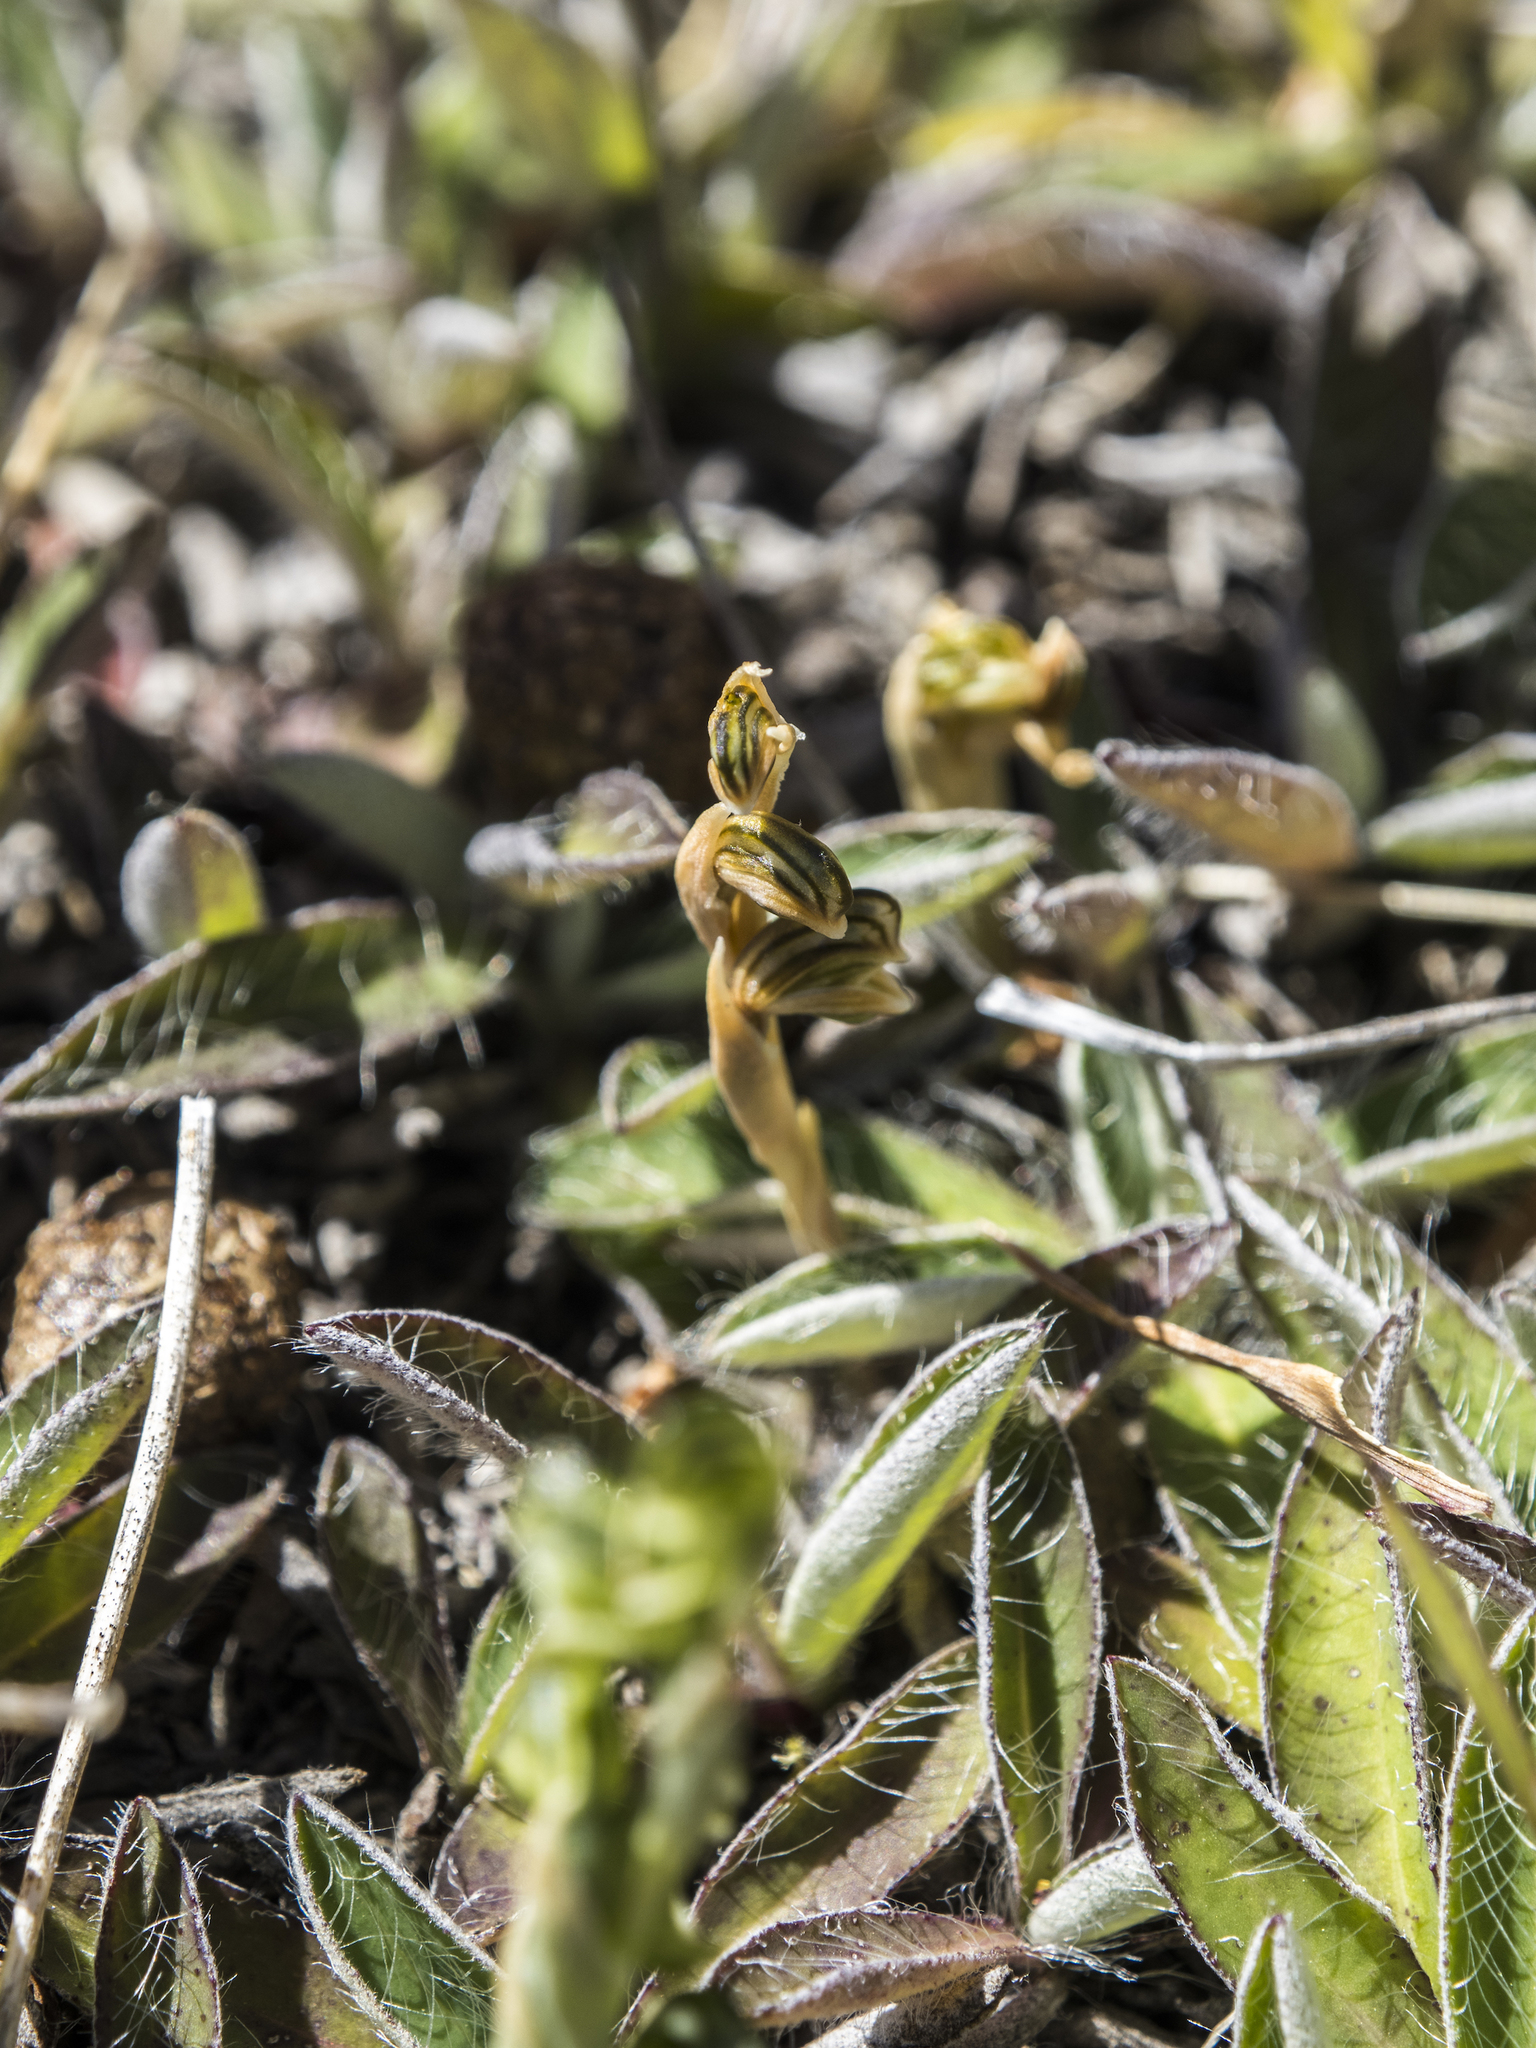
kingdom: Plantae
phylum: Tracheophyta
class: Liliopsida
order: Asparagales
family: Orchidaceae
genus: Pterostylis
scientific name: Pterostylis tristis
